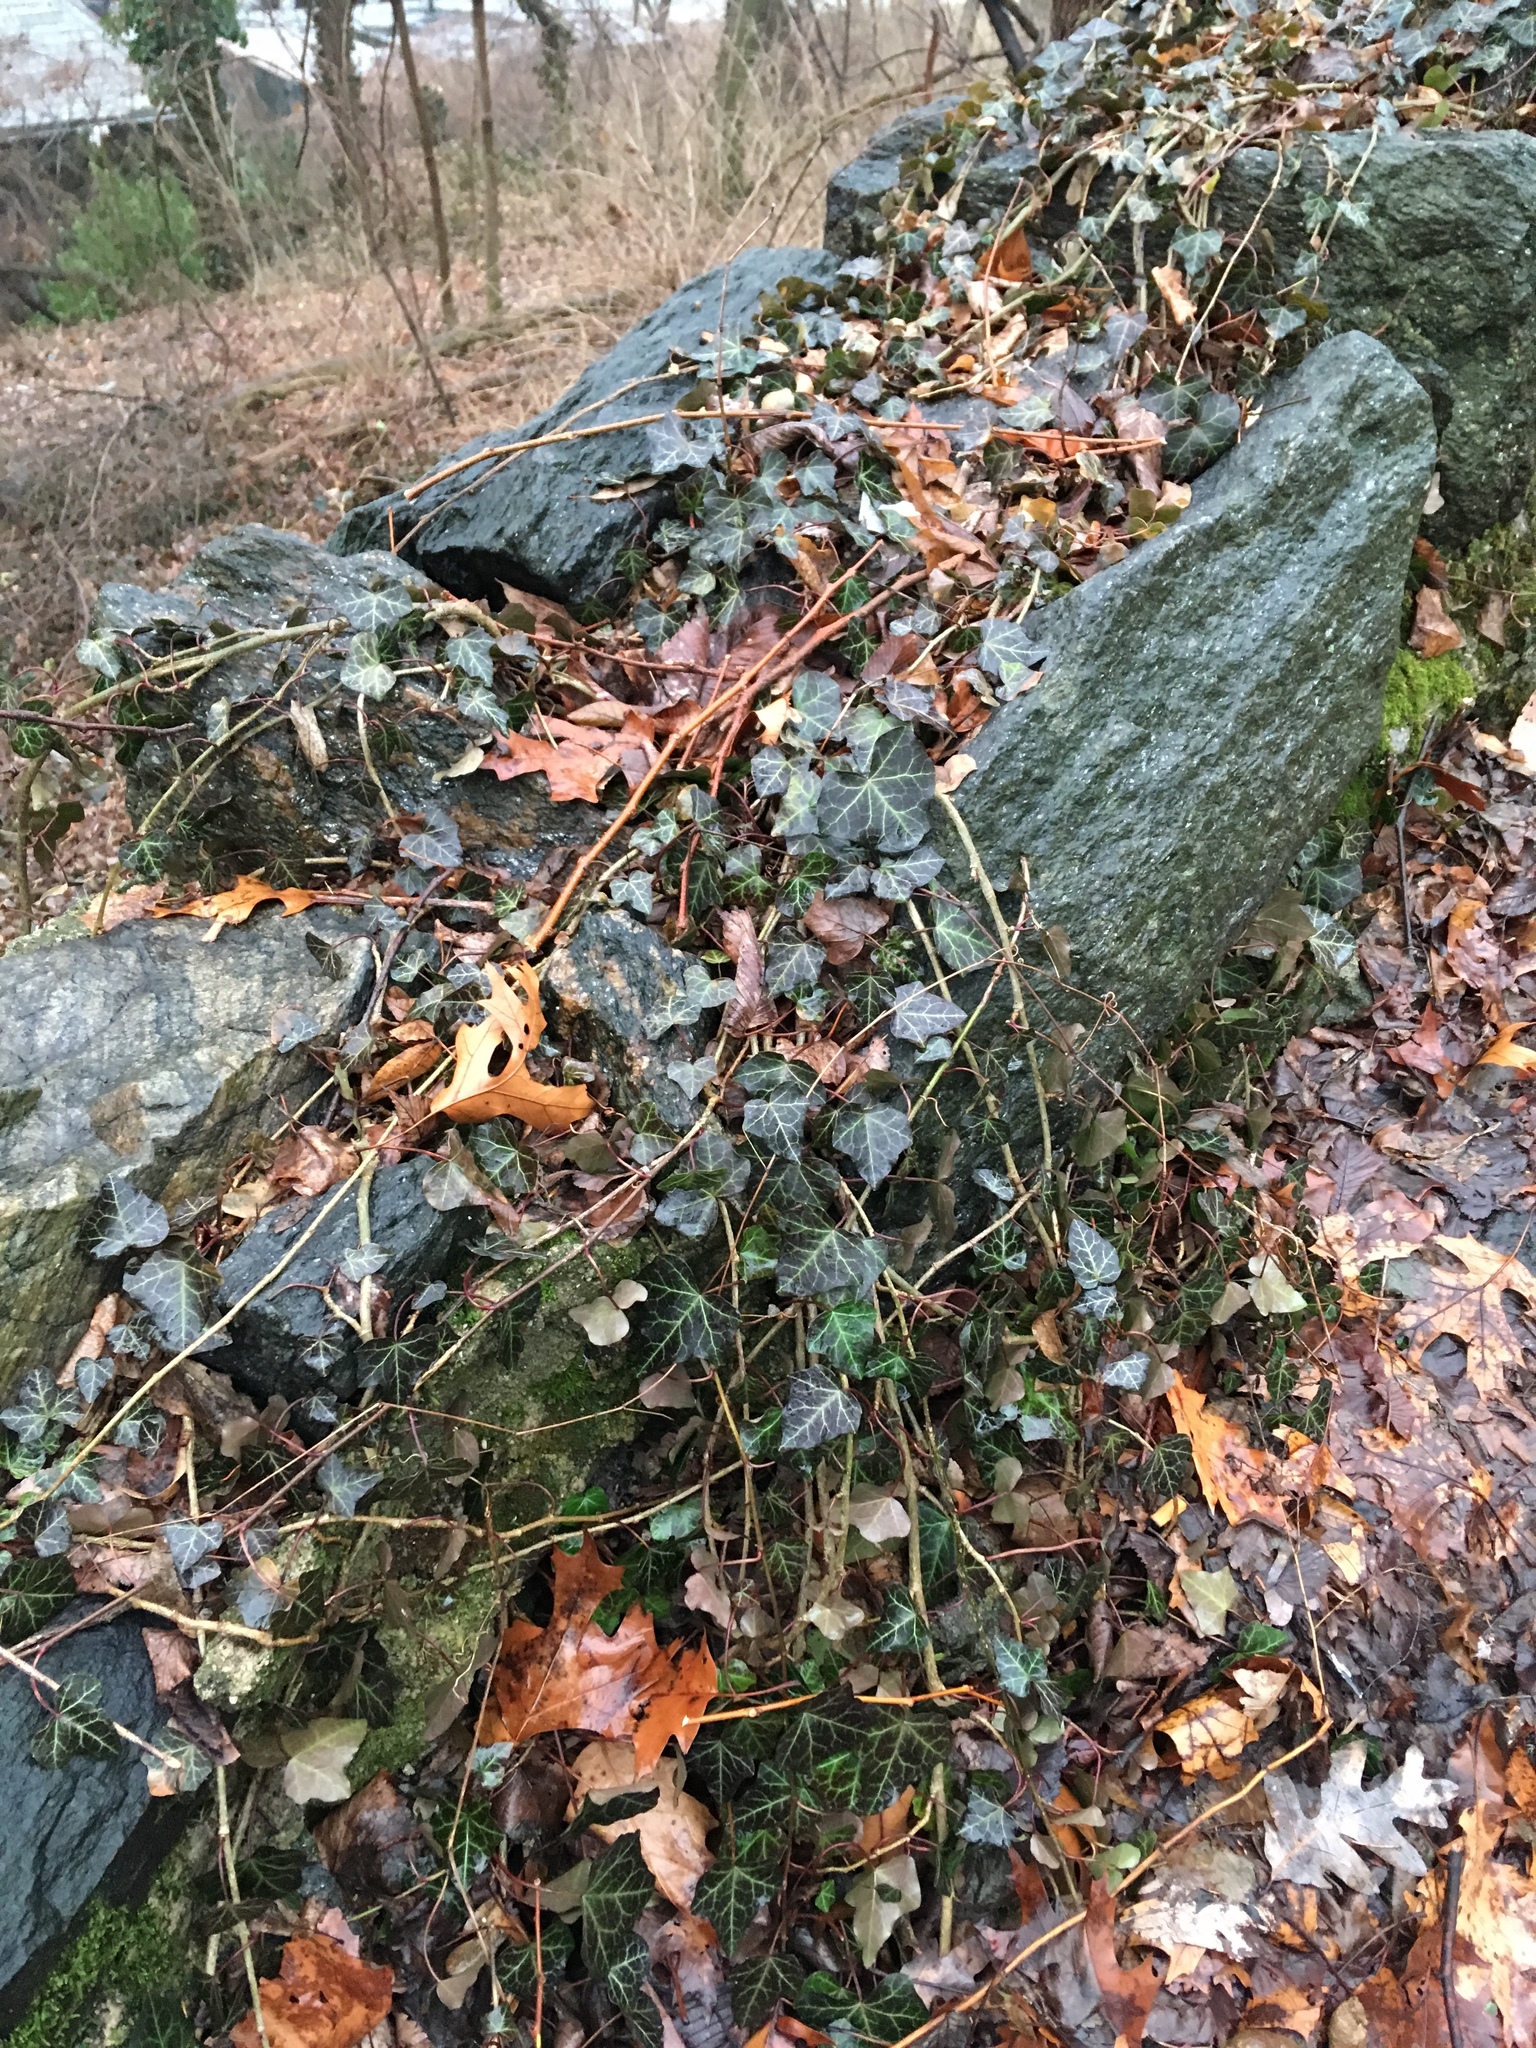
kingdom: Plantae
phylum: Tracheophyta
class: Magnoliopsida
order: Apiales
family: Araliaceae
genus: Hedera
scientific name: Hedera helix
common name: Ivy
